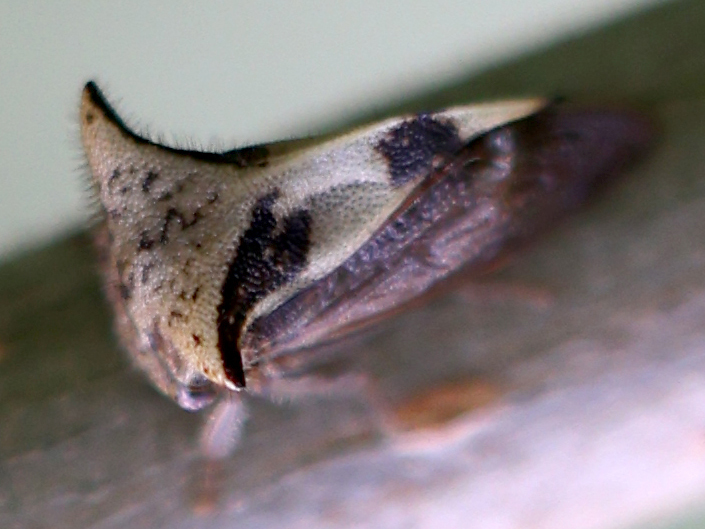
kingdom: Animalia
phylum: Arthropoda
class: Insecta
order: Hemiptera
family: Membracidae
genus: Stictocephala
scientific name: Stictocephala diceros
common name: Two-horned treehopper
